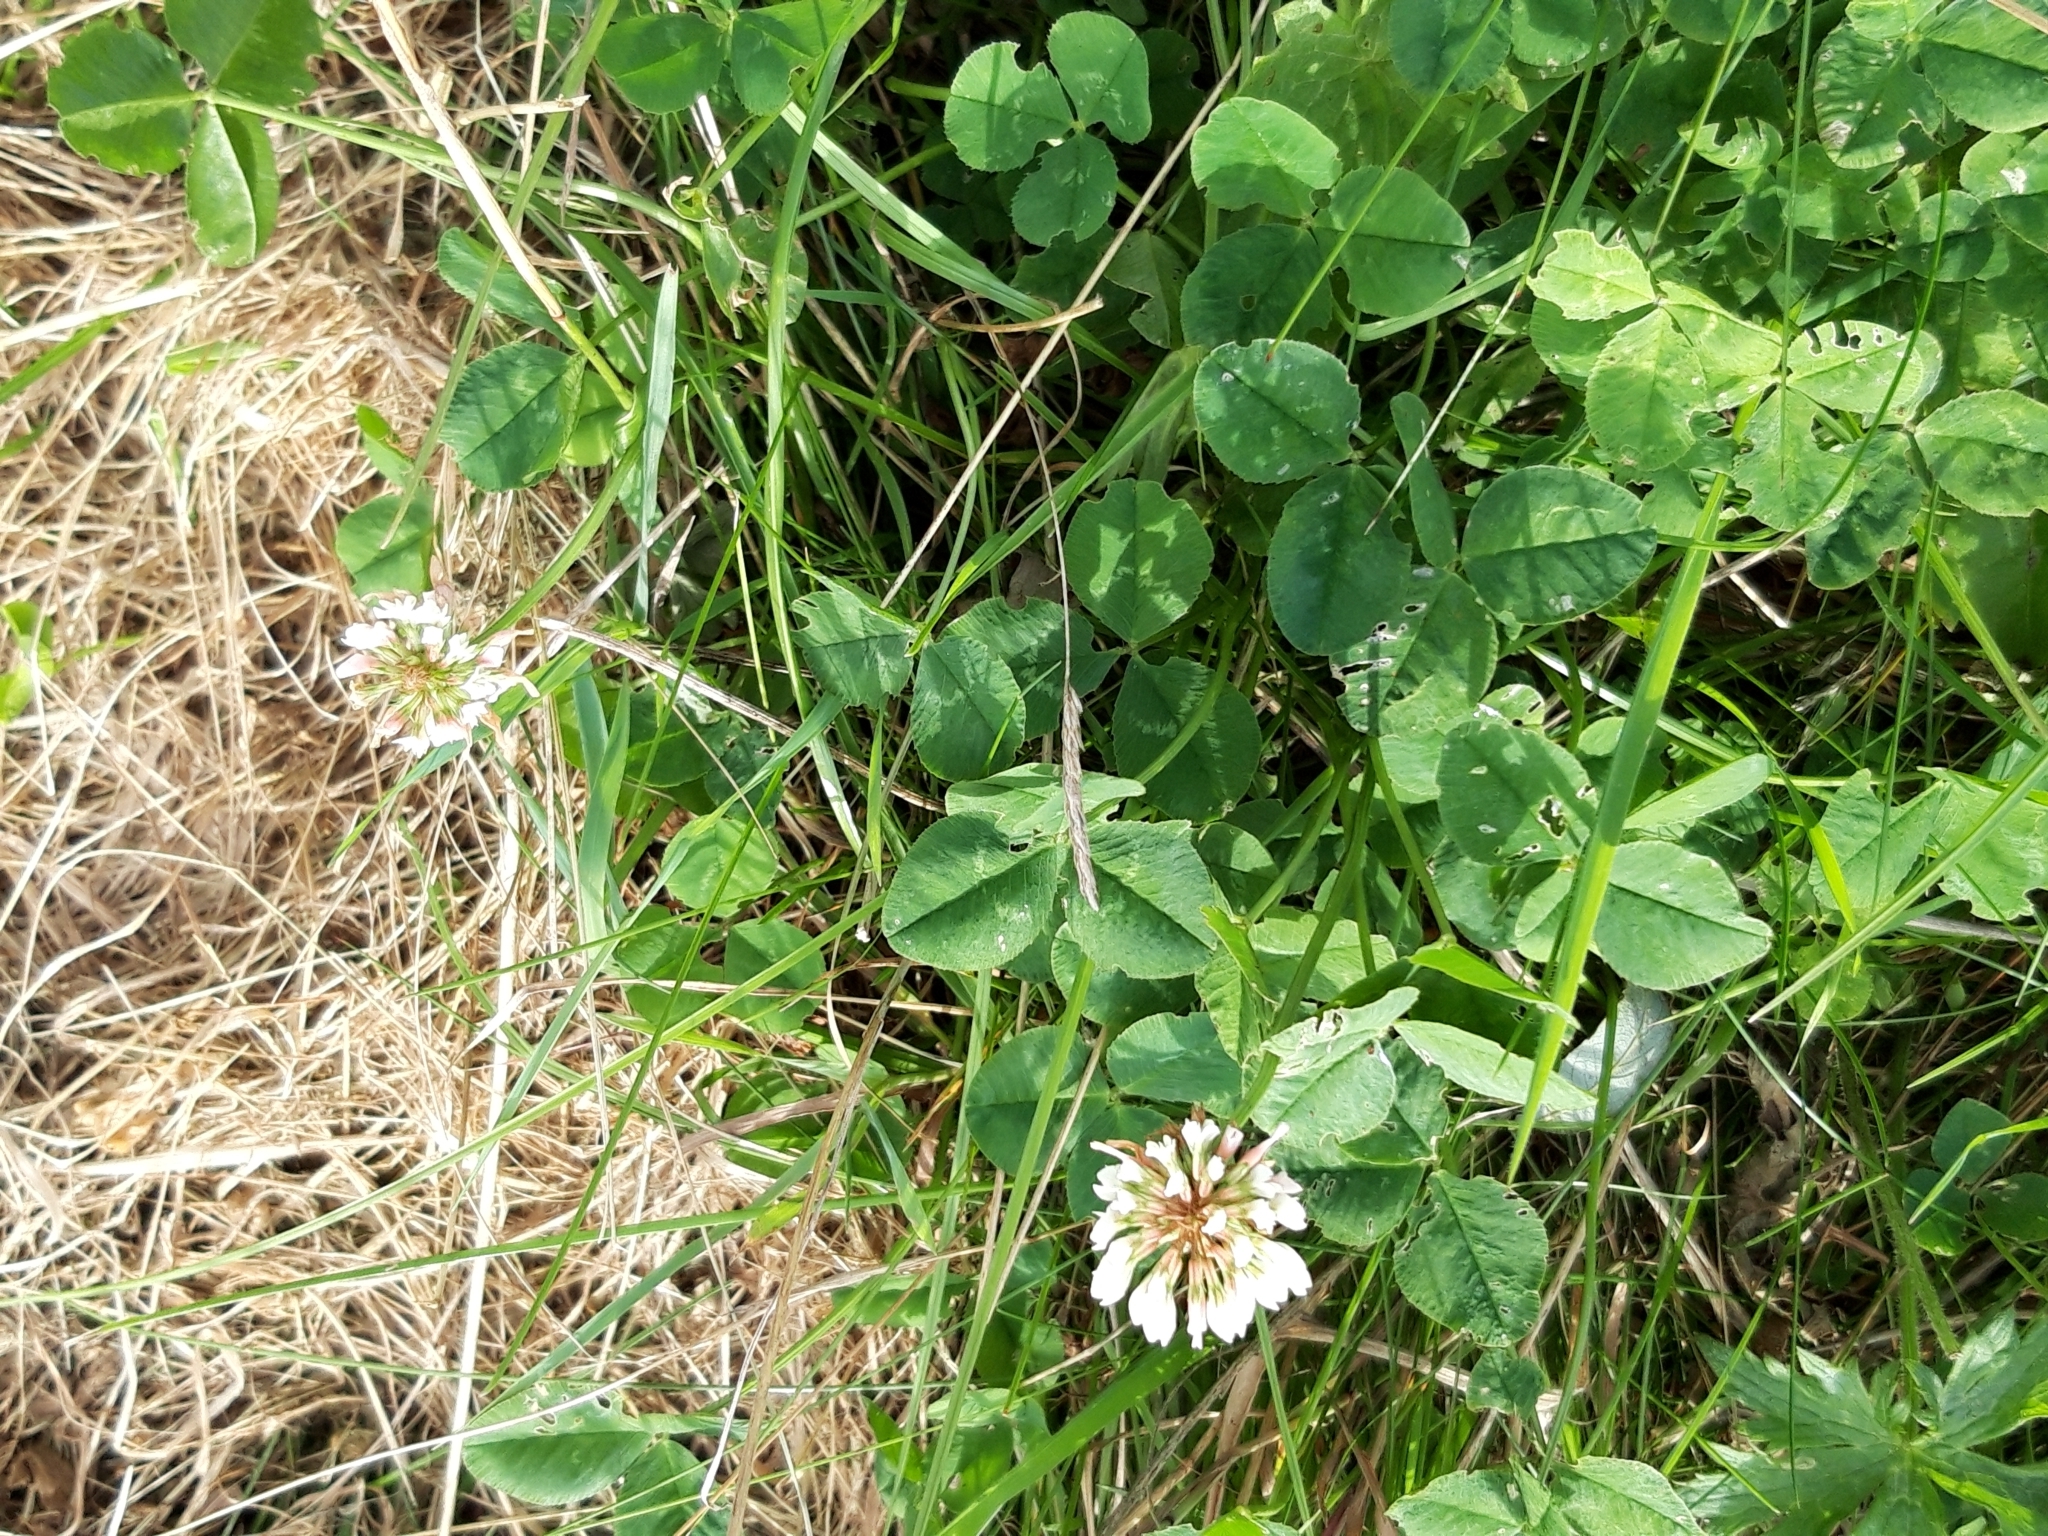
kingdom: Plantae
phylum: Tracheophyta
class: Magnoliopsida
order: Fabales
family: Fabaceae
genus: Trifolium
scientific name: Trifolium repens
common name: White clover
